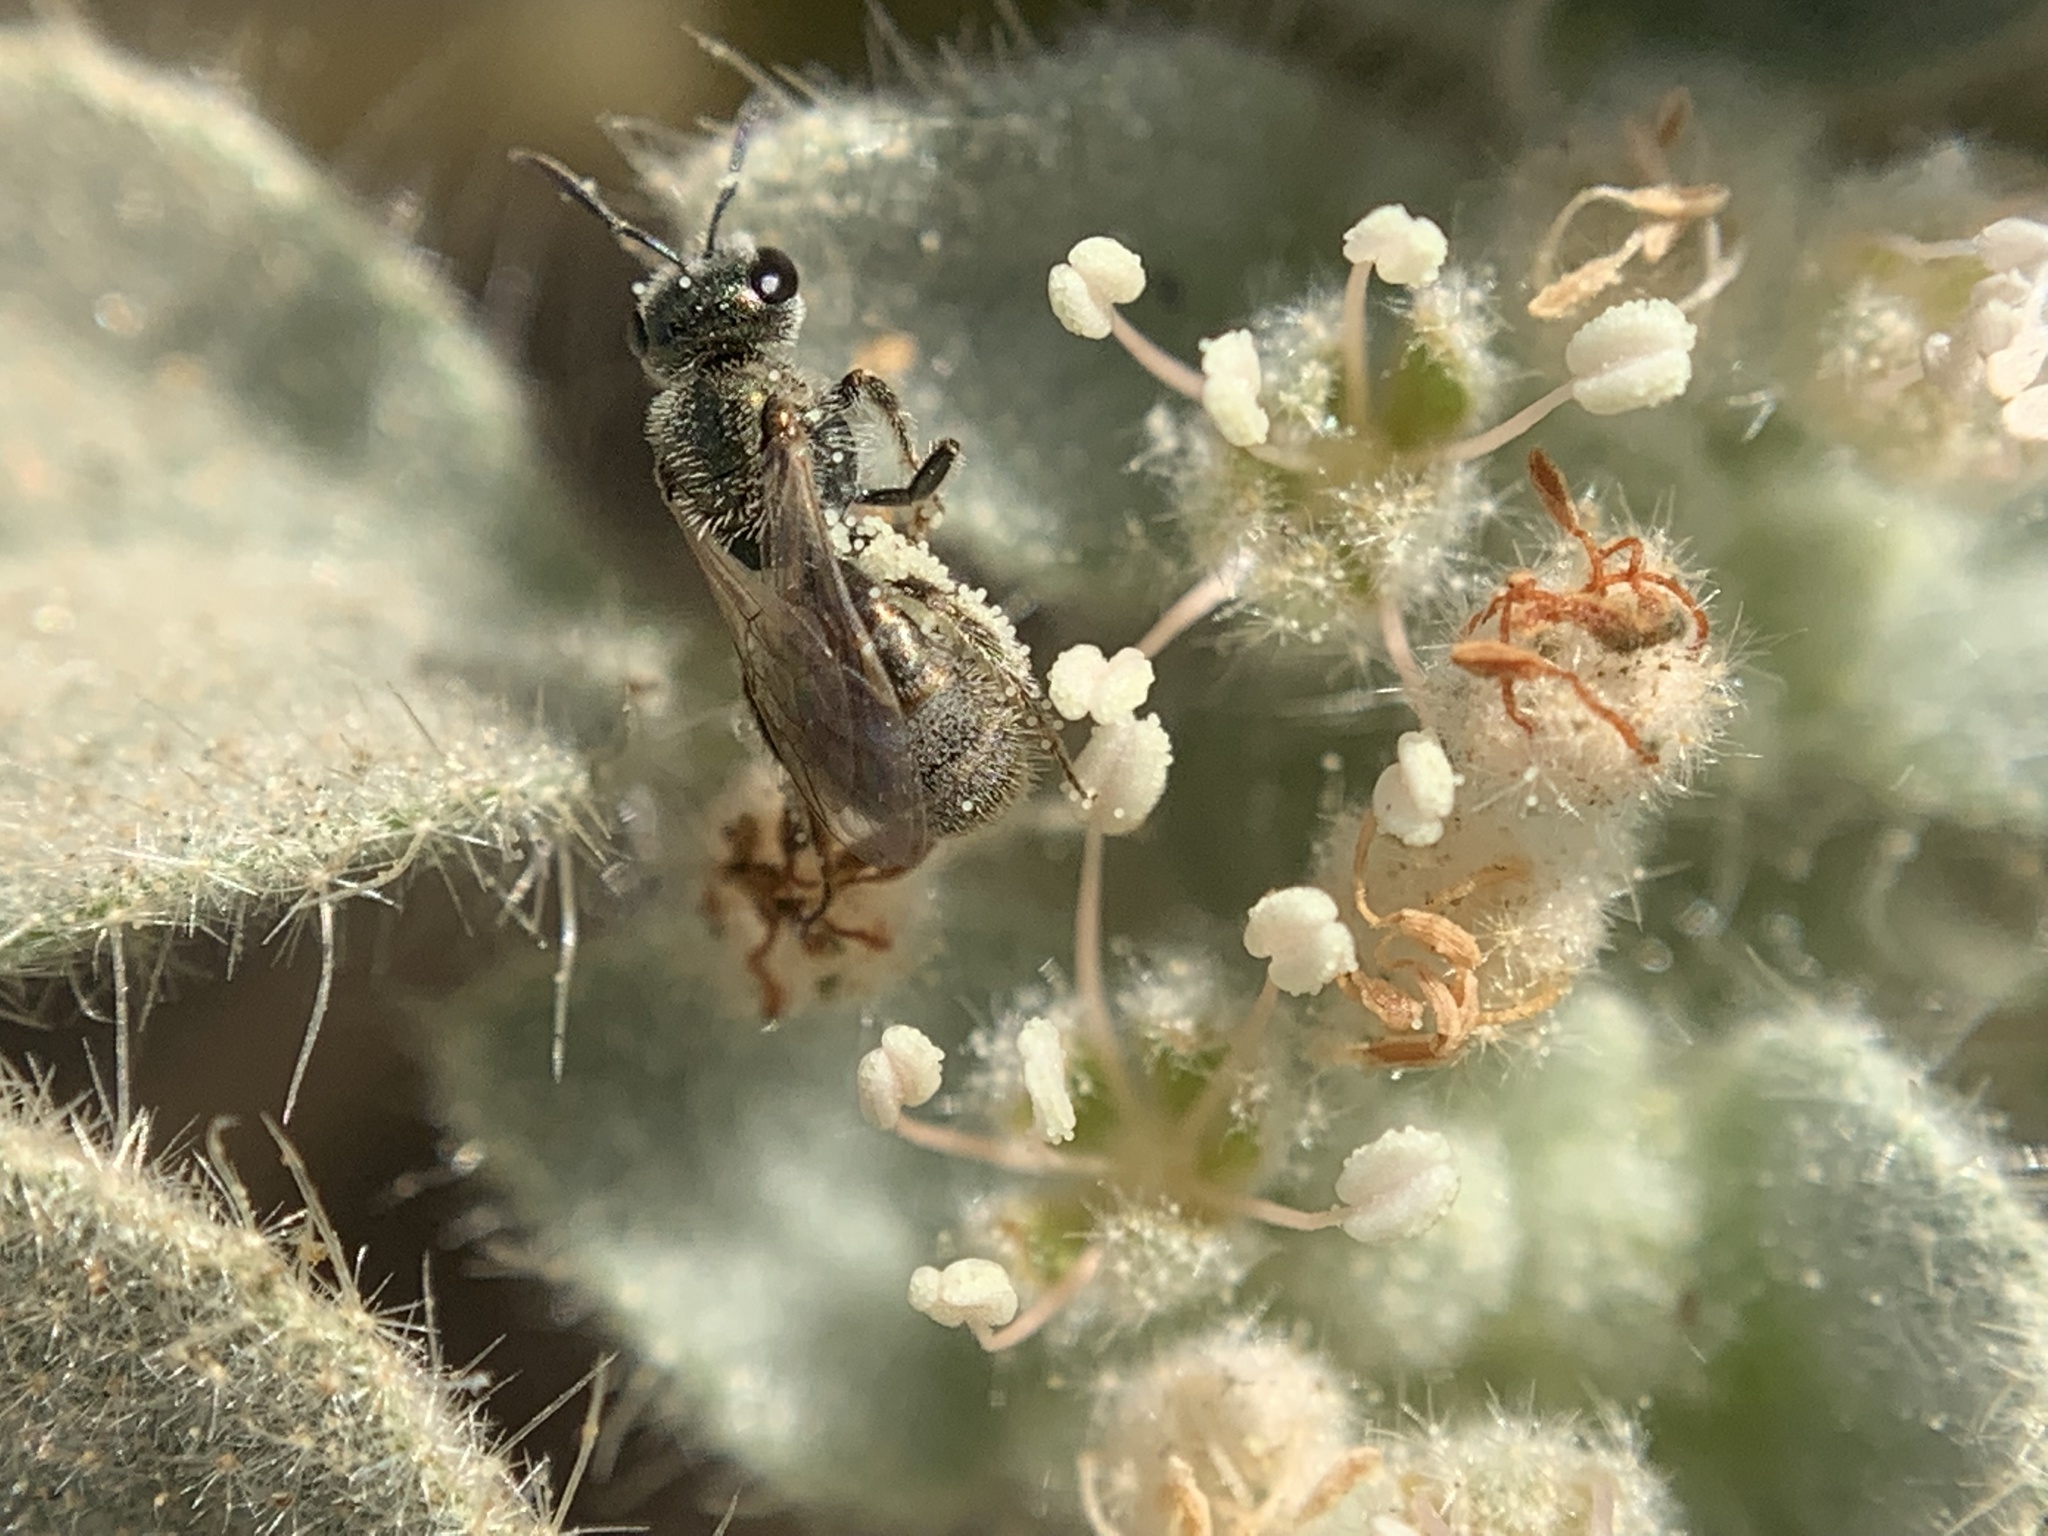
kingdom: Animalia
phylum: Arthropoda
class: Insecta
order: Hymenoptera
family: Halictidae
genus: Dialictus
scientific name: Dialictus
